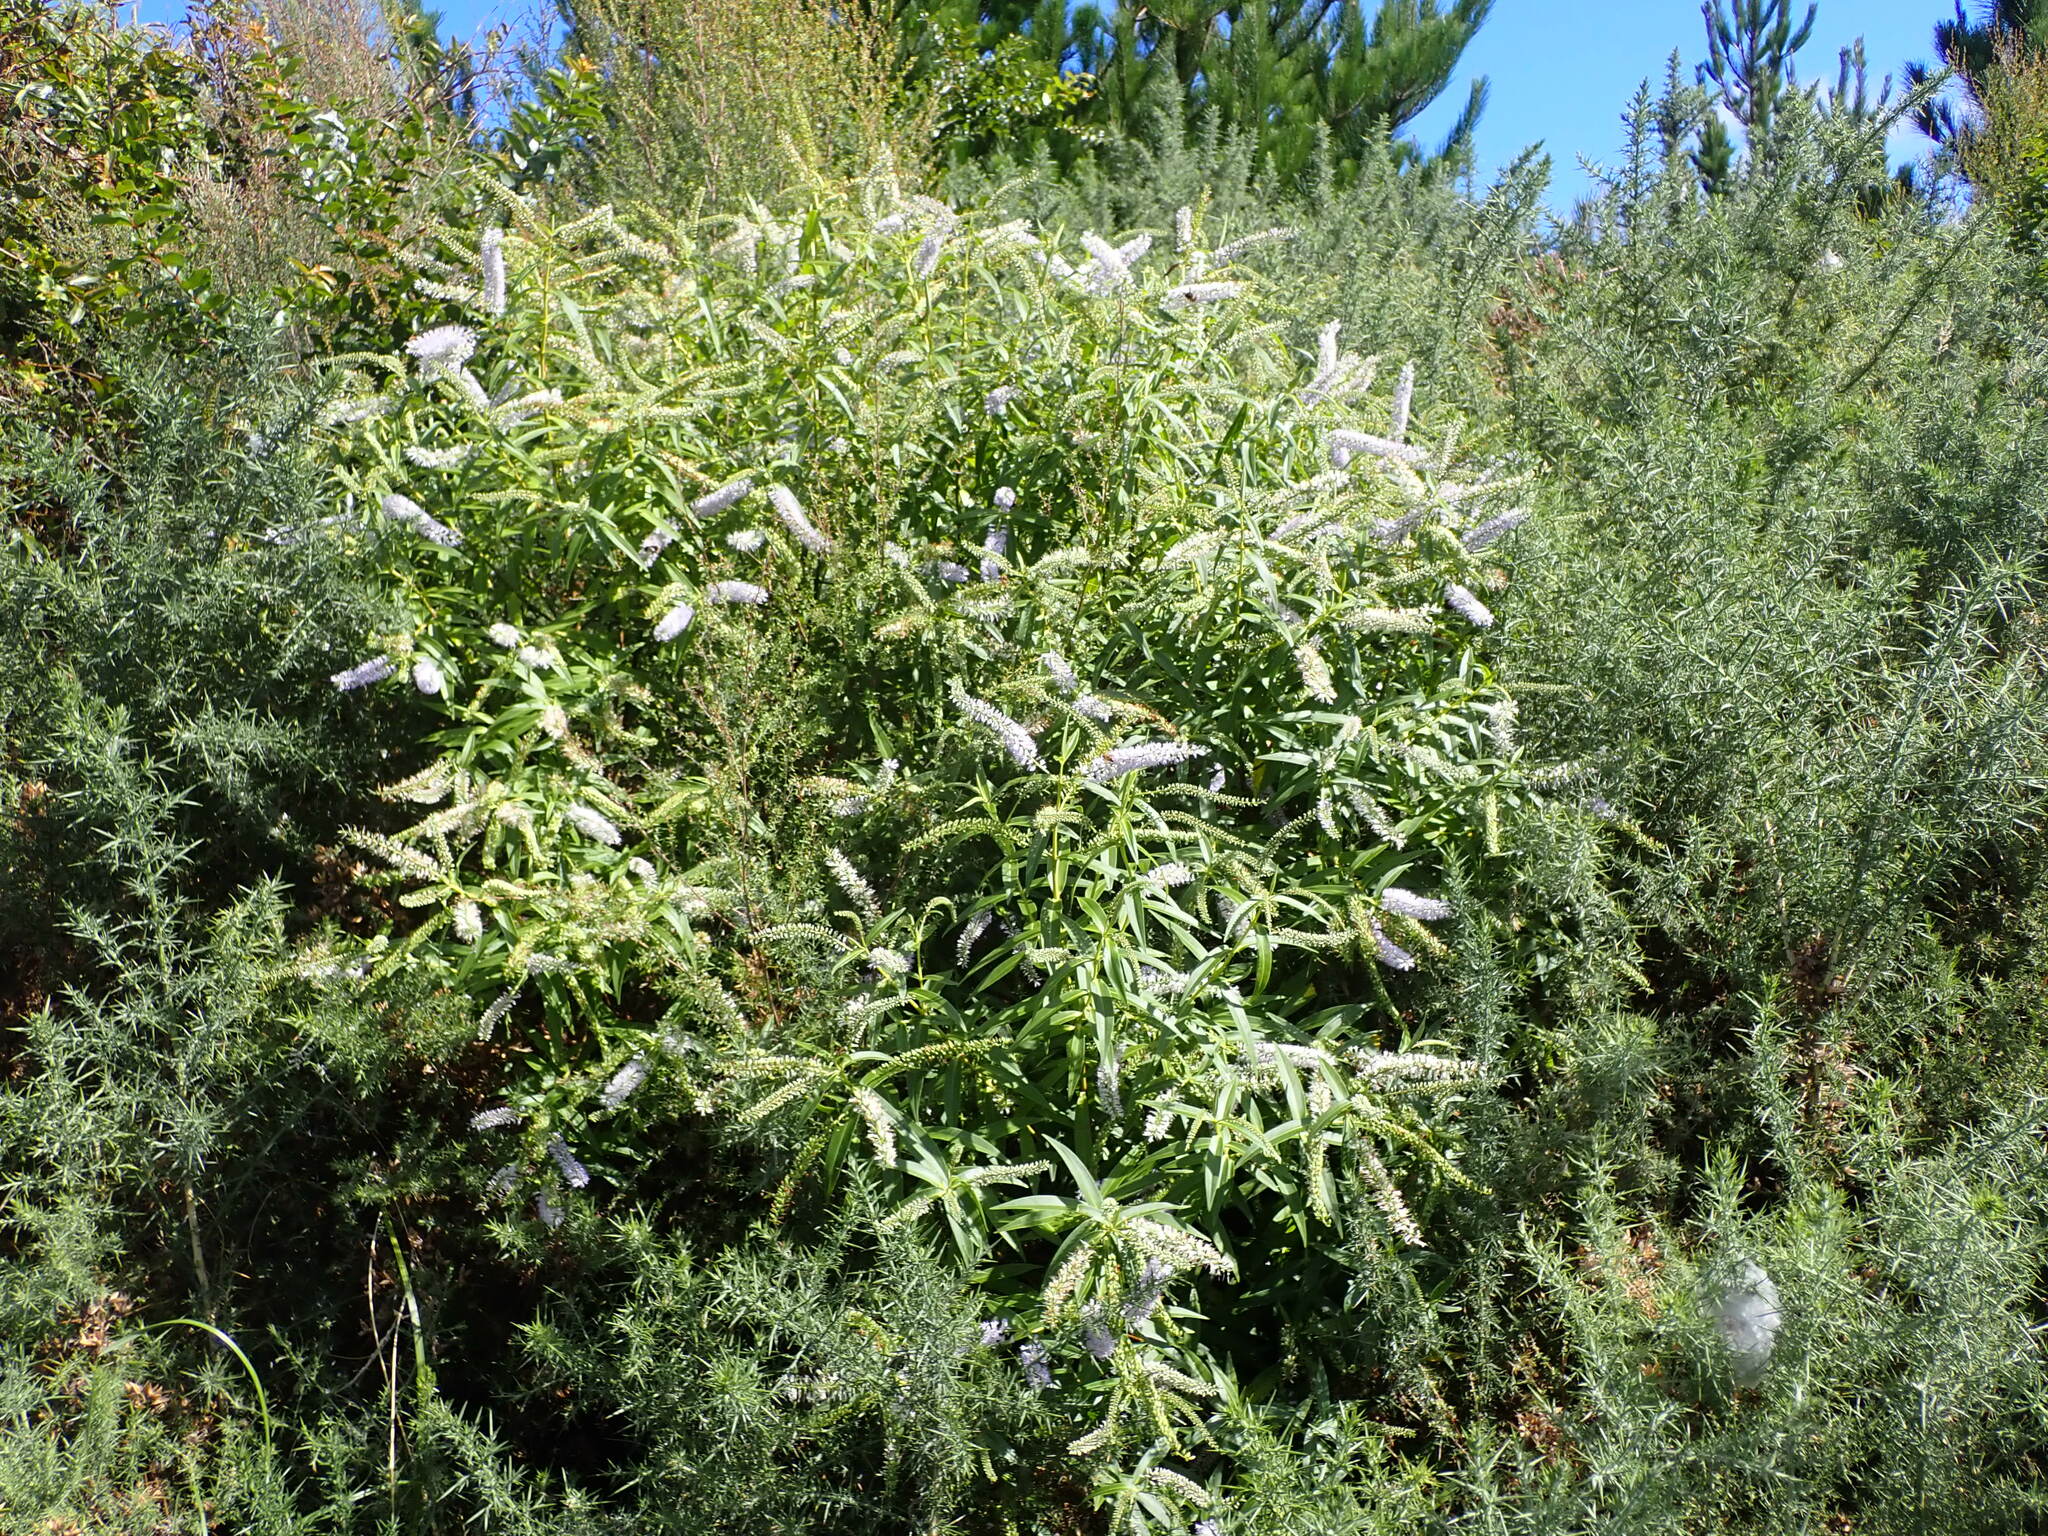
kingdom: Plantae
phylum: Tracheophyta
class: Magnoliopsida
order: Lamiales
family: Plantaginaceae
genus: Veronica
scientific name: Veronica stricta
